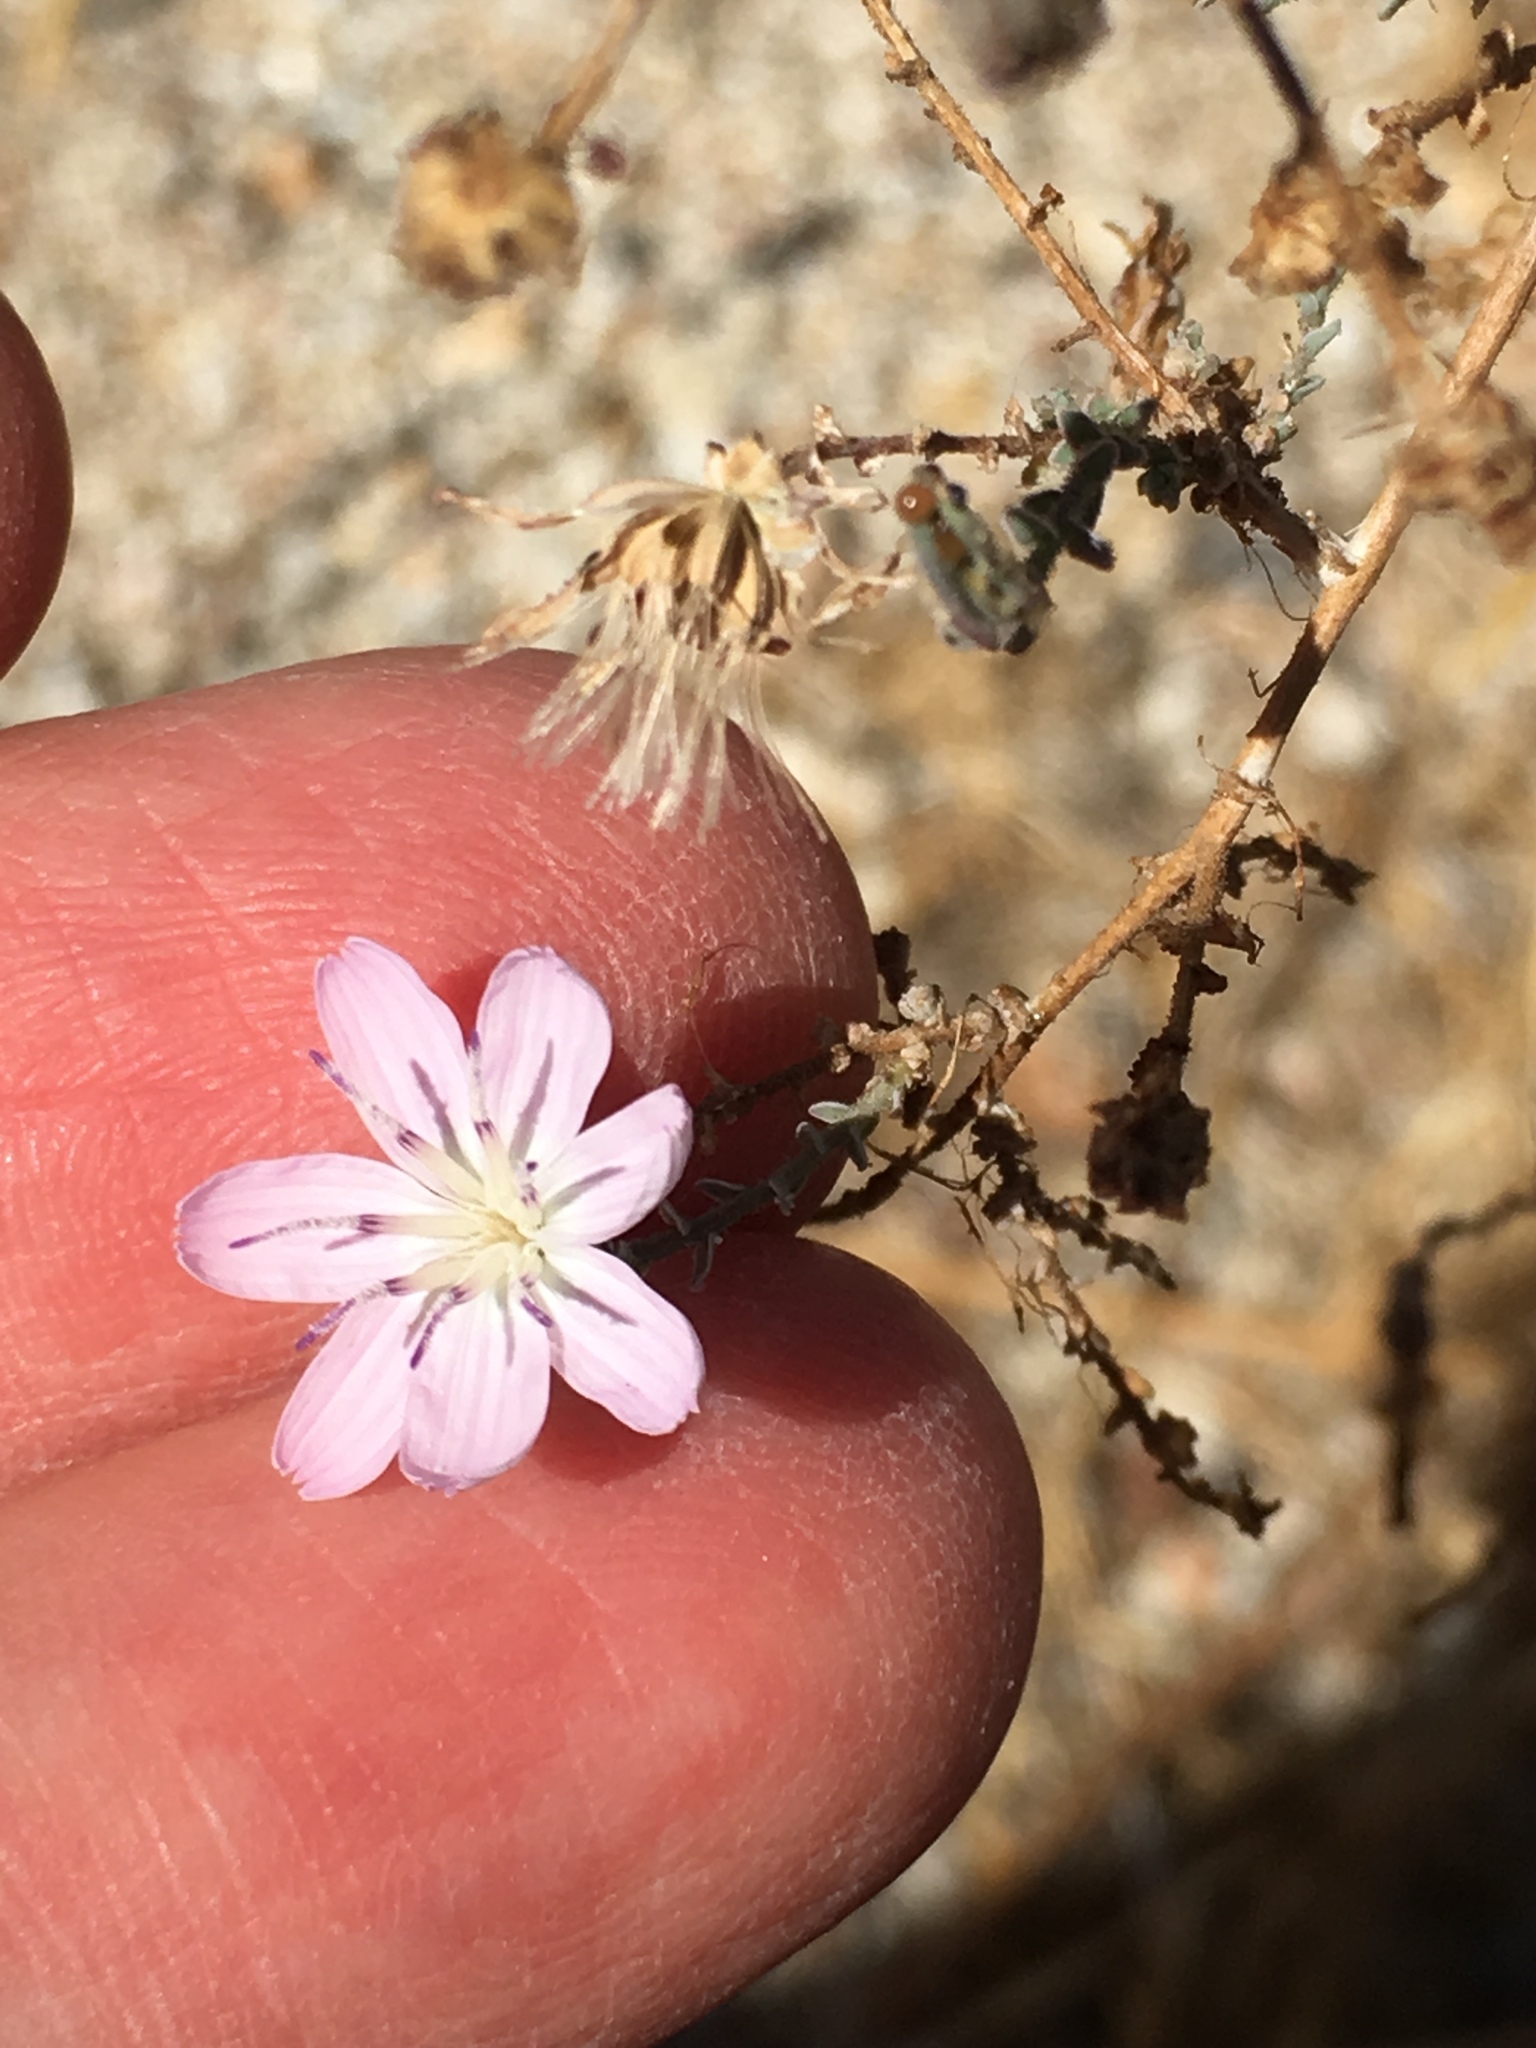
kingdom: Plantae
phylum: Tracheophyta
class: Magnoliopsida
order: Asterales
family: Asteraceae
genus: Stephanomeria
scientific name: Stephanomeria exigua
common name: Small wirelettuce
